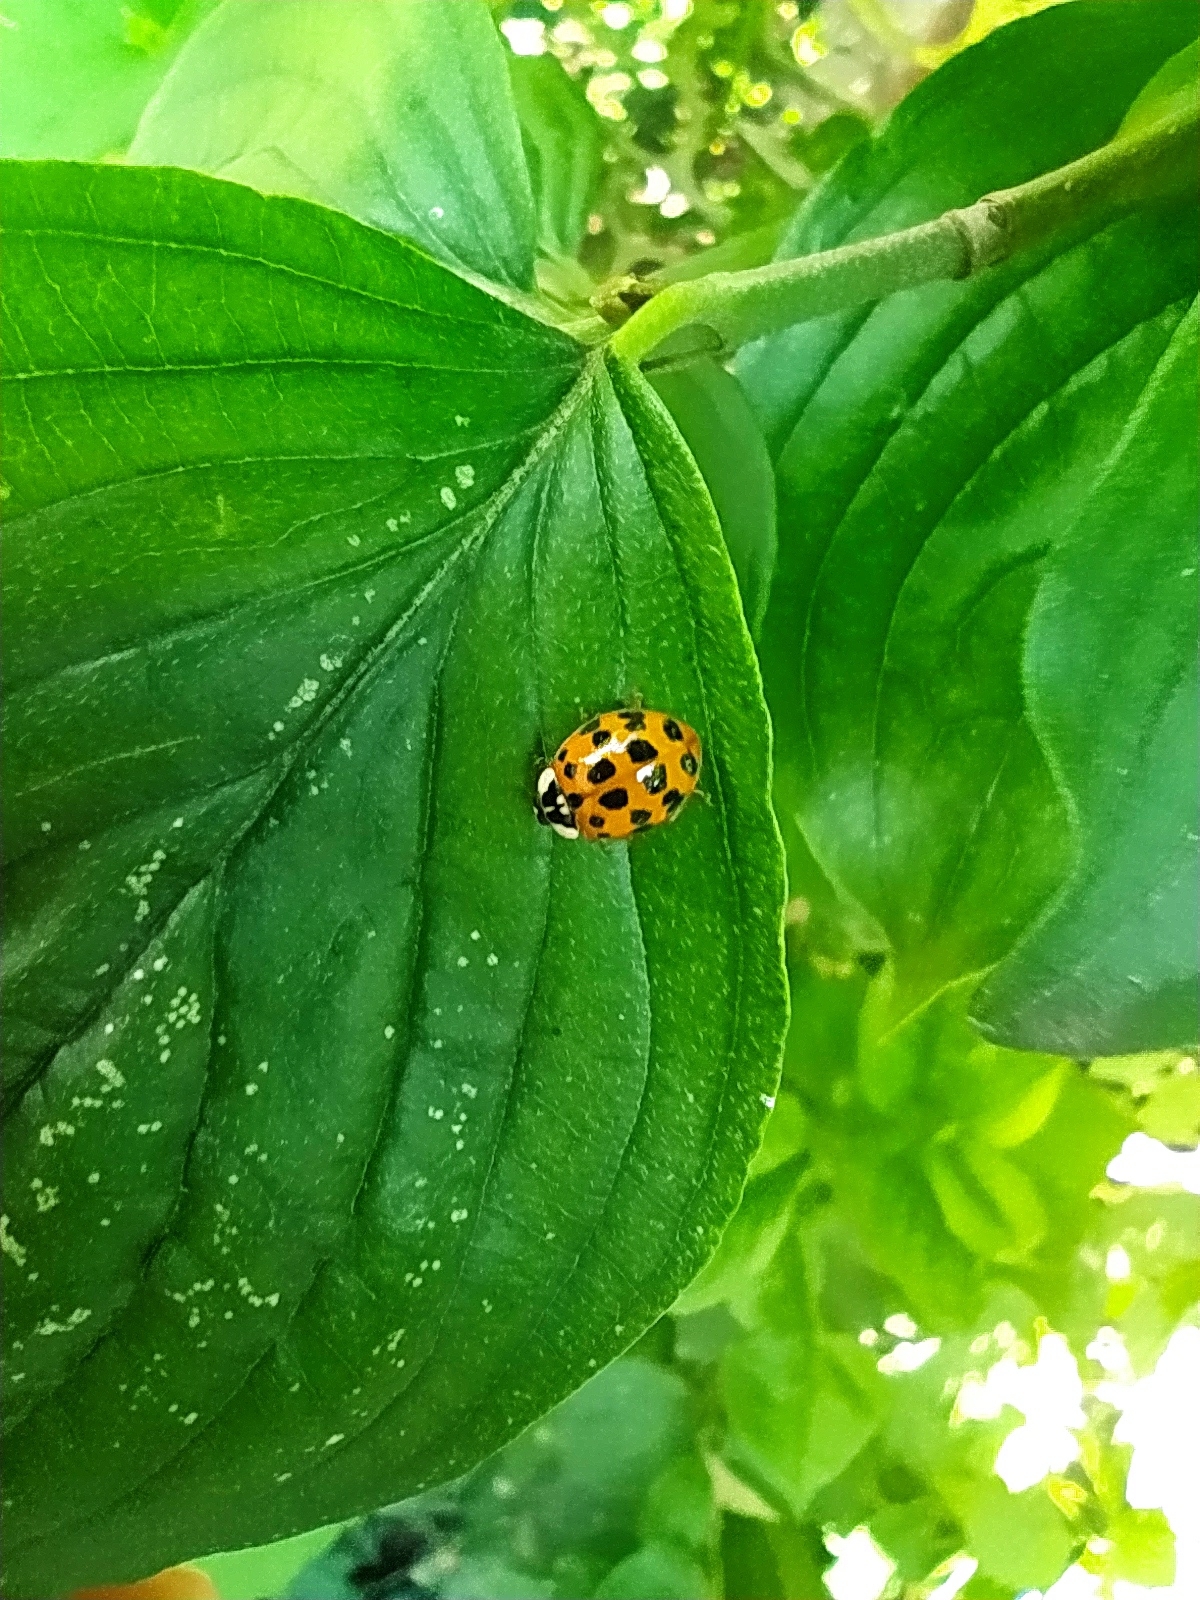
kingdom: Animalia
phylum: Arthropoda
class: Insecta
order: Coleoptera
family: Coccinellidae
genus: Harmonia
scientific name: Harmonia axyridis
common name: Harlequin ladybird
